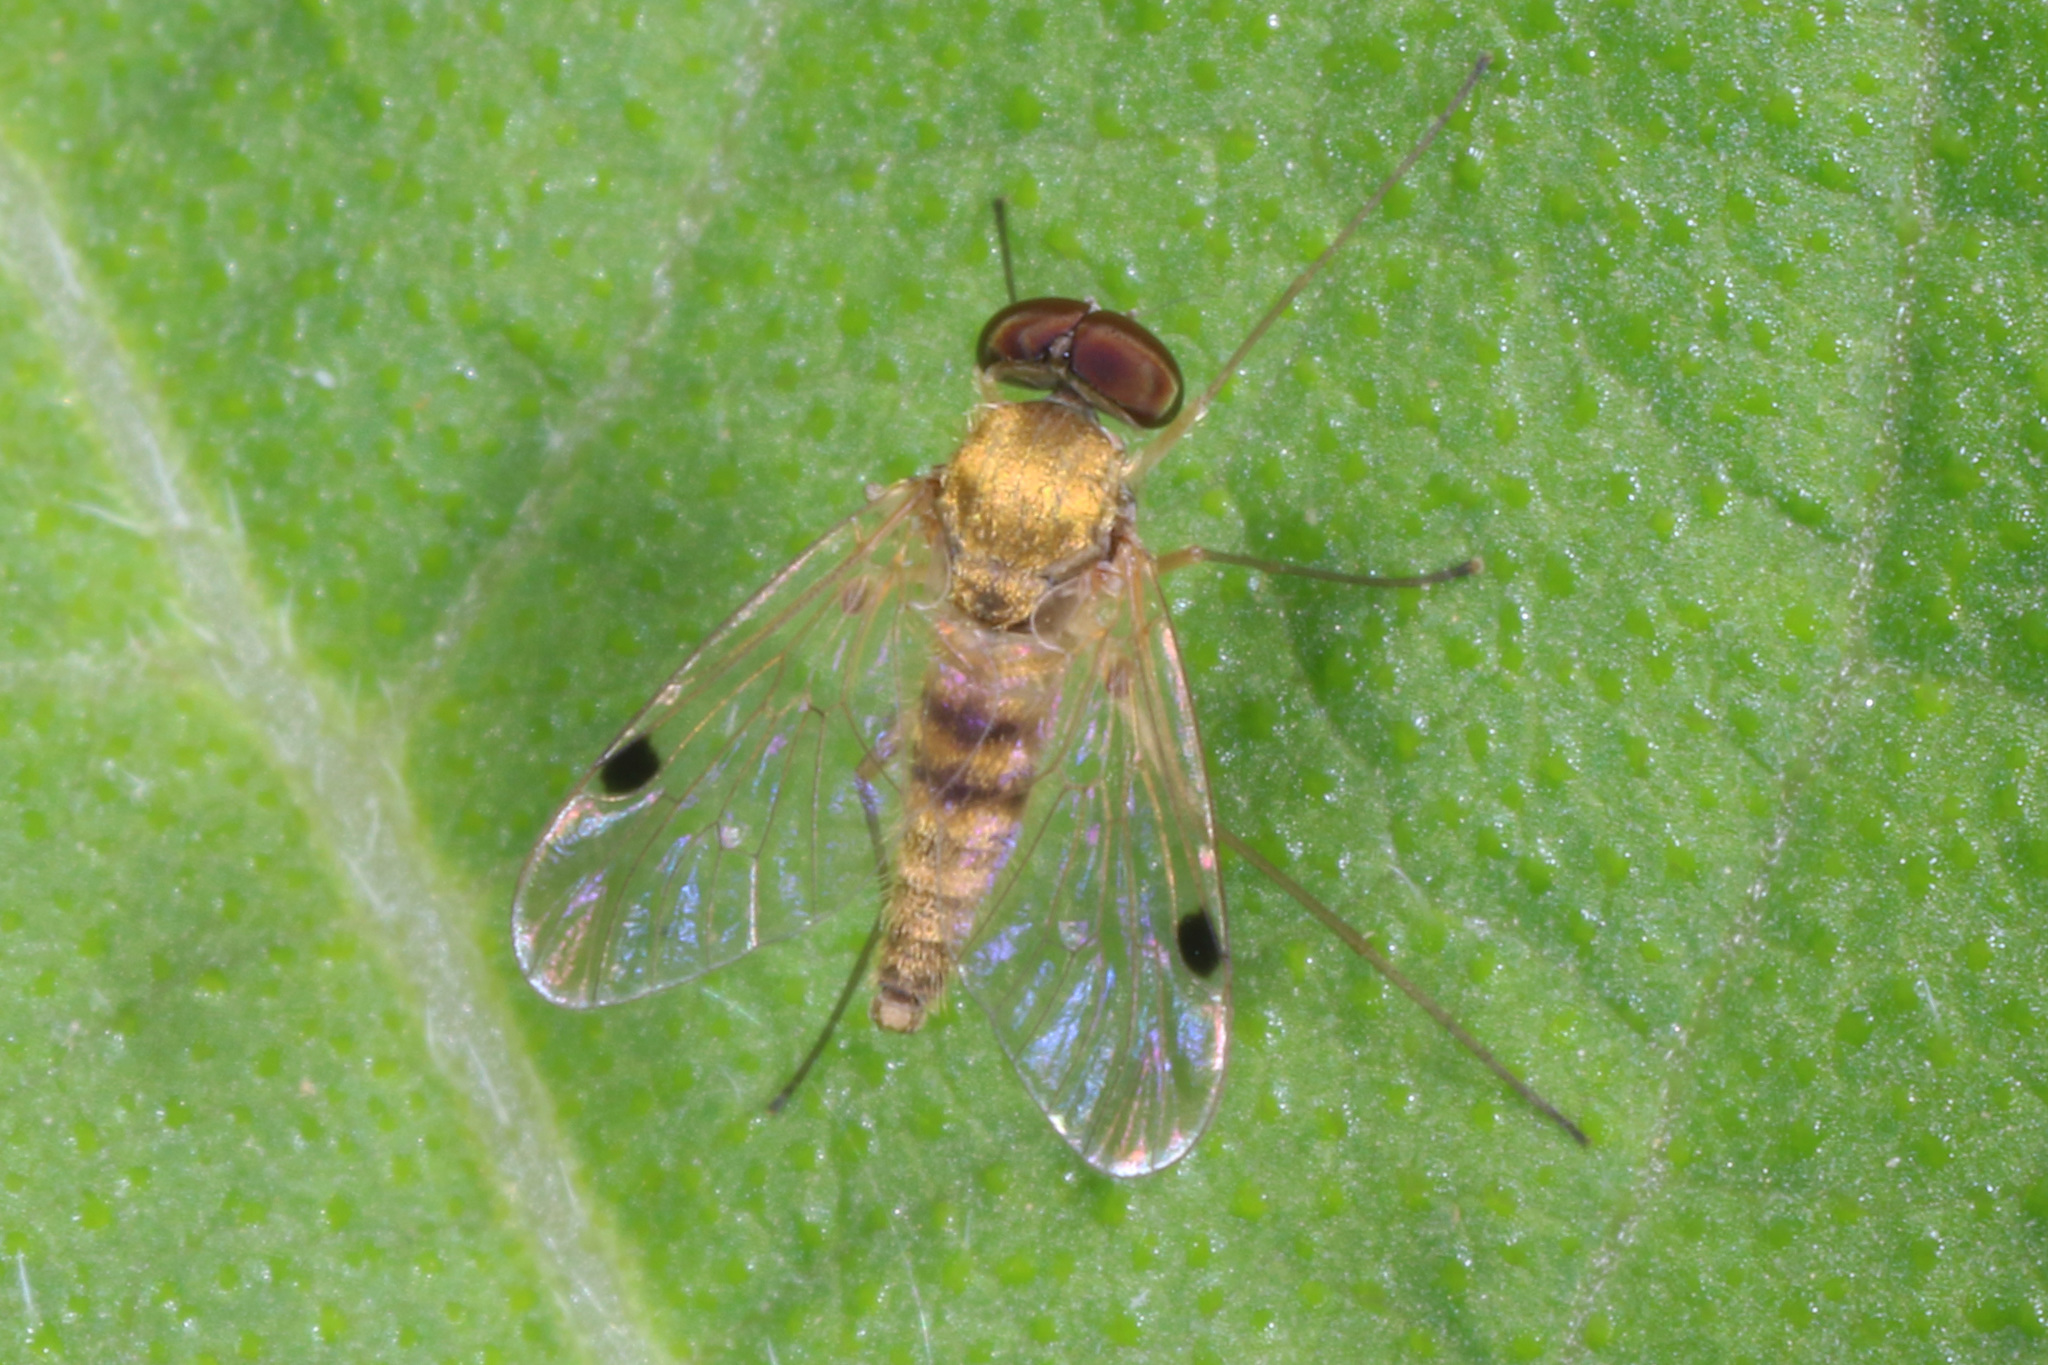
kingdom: Animalia
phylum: Arthropoda
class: Insecta
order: Diptera
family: Rhagionidae
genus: Chrysopilus
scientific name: Chrysopilus modestus
